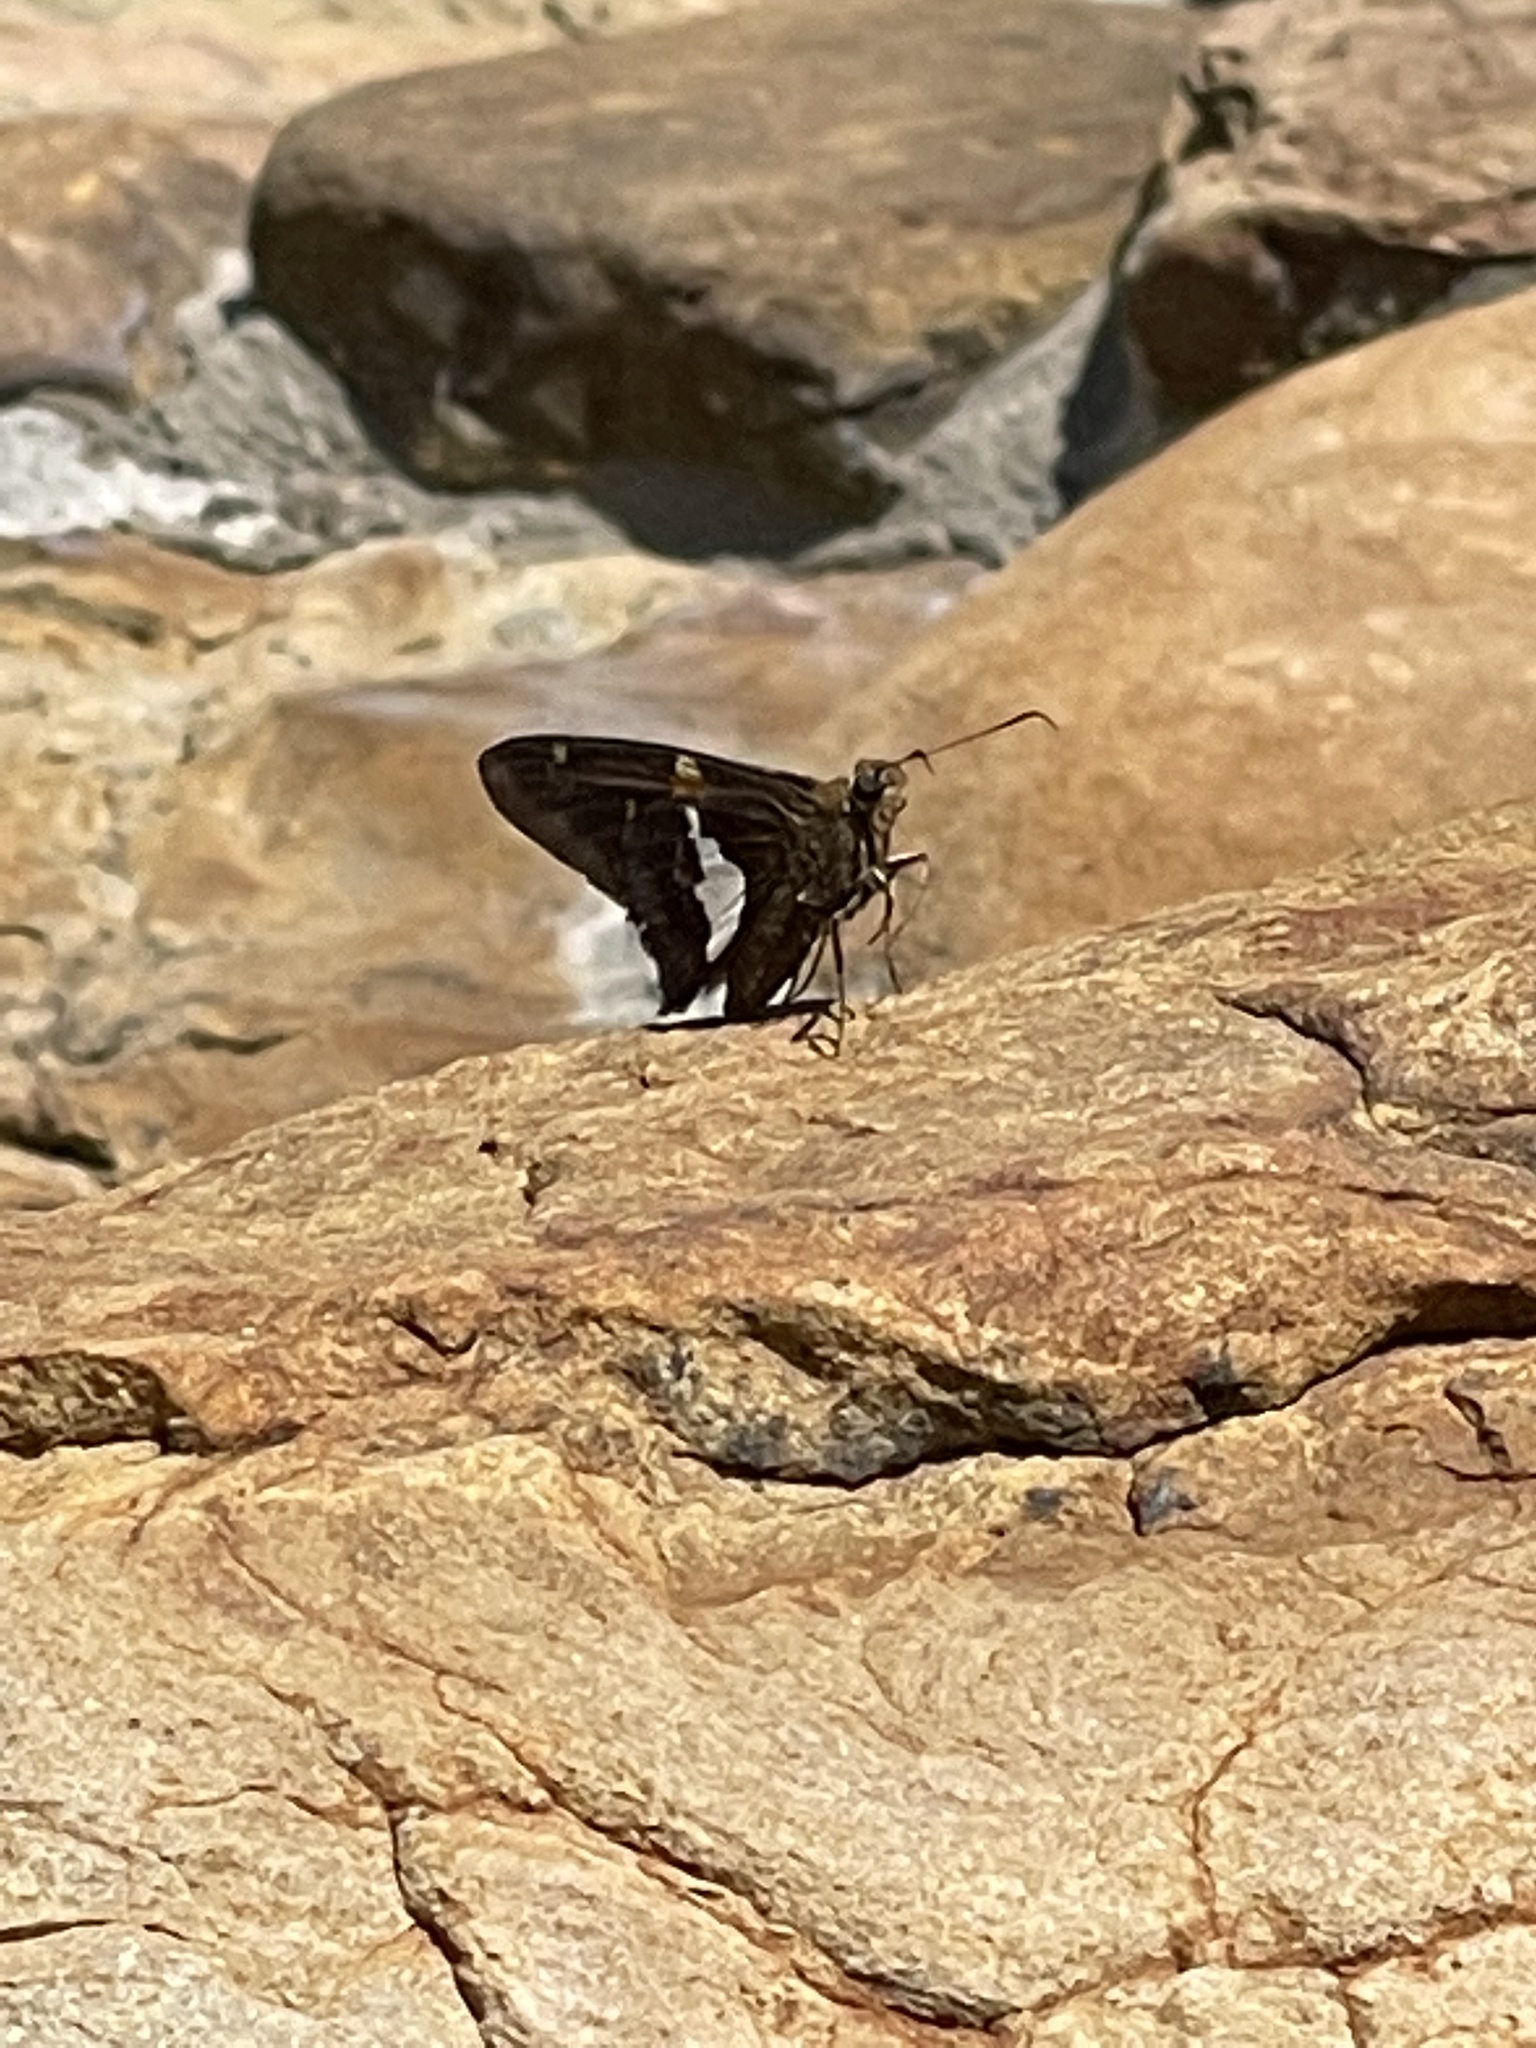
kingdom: Animalia
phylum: Arthropoda
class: Insecta
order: Lepidoptera
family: Hesperiidae
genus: Epargyreus
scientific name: Epargyreus clarus
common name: Silver-spotted skipper
